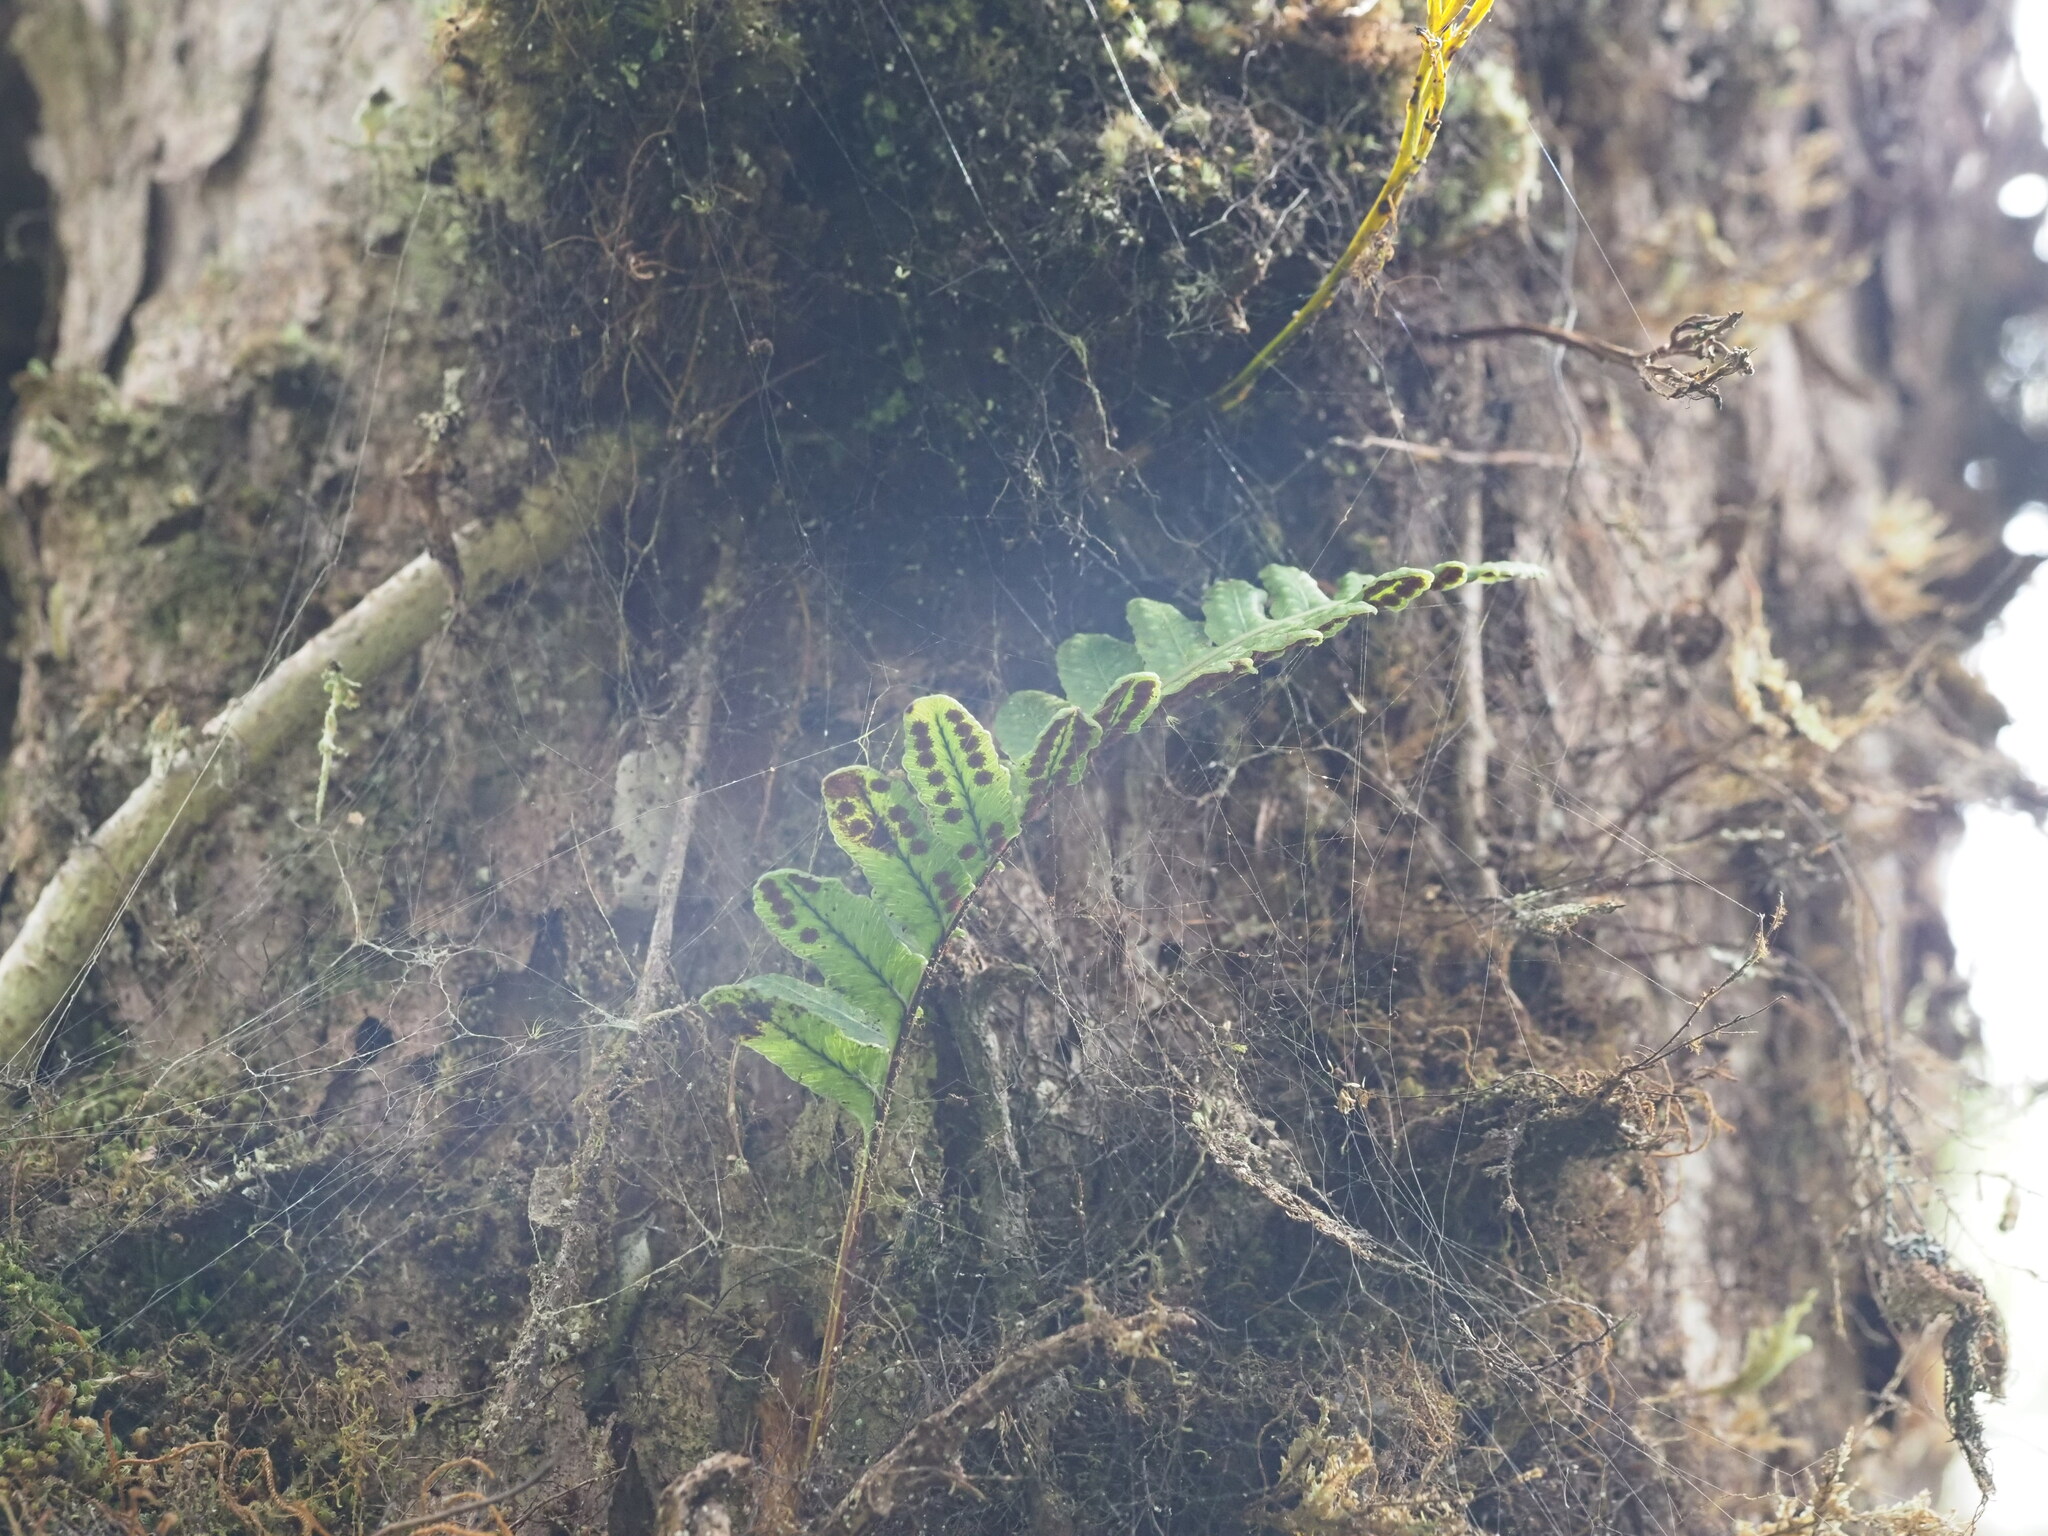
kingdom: Plantae
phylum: Tracheophyta
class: Polypodiopsida
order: Polypodiales
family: Polypodiaceae
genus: Polypodium
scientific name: Polypodium pellucidum
